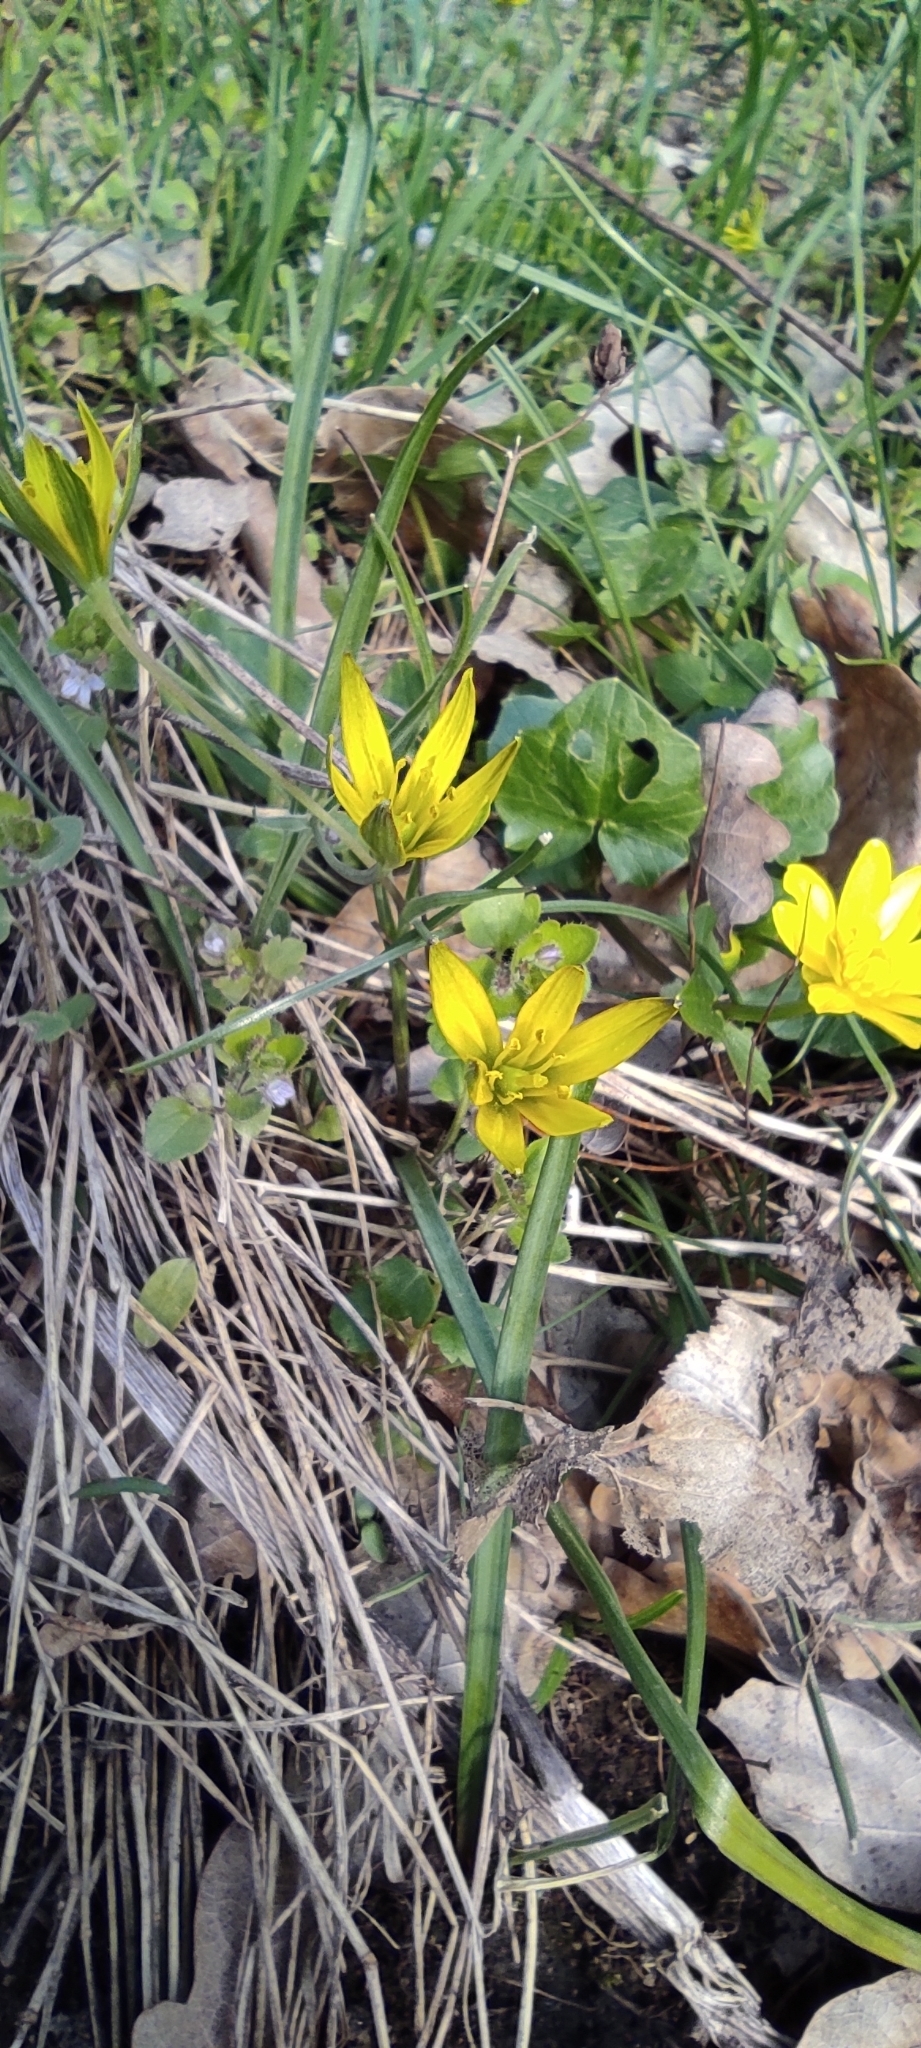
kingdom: Plantae
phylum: Tracheophyta
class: Liliopsida
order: Liliales
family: Liliaceae
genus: Gagea
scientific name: Gagea pratensis
